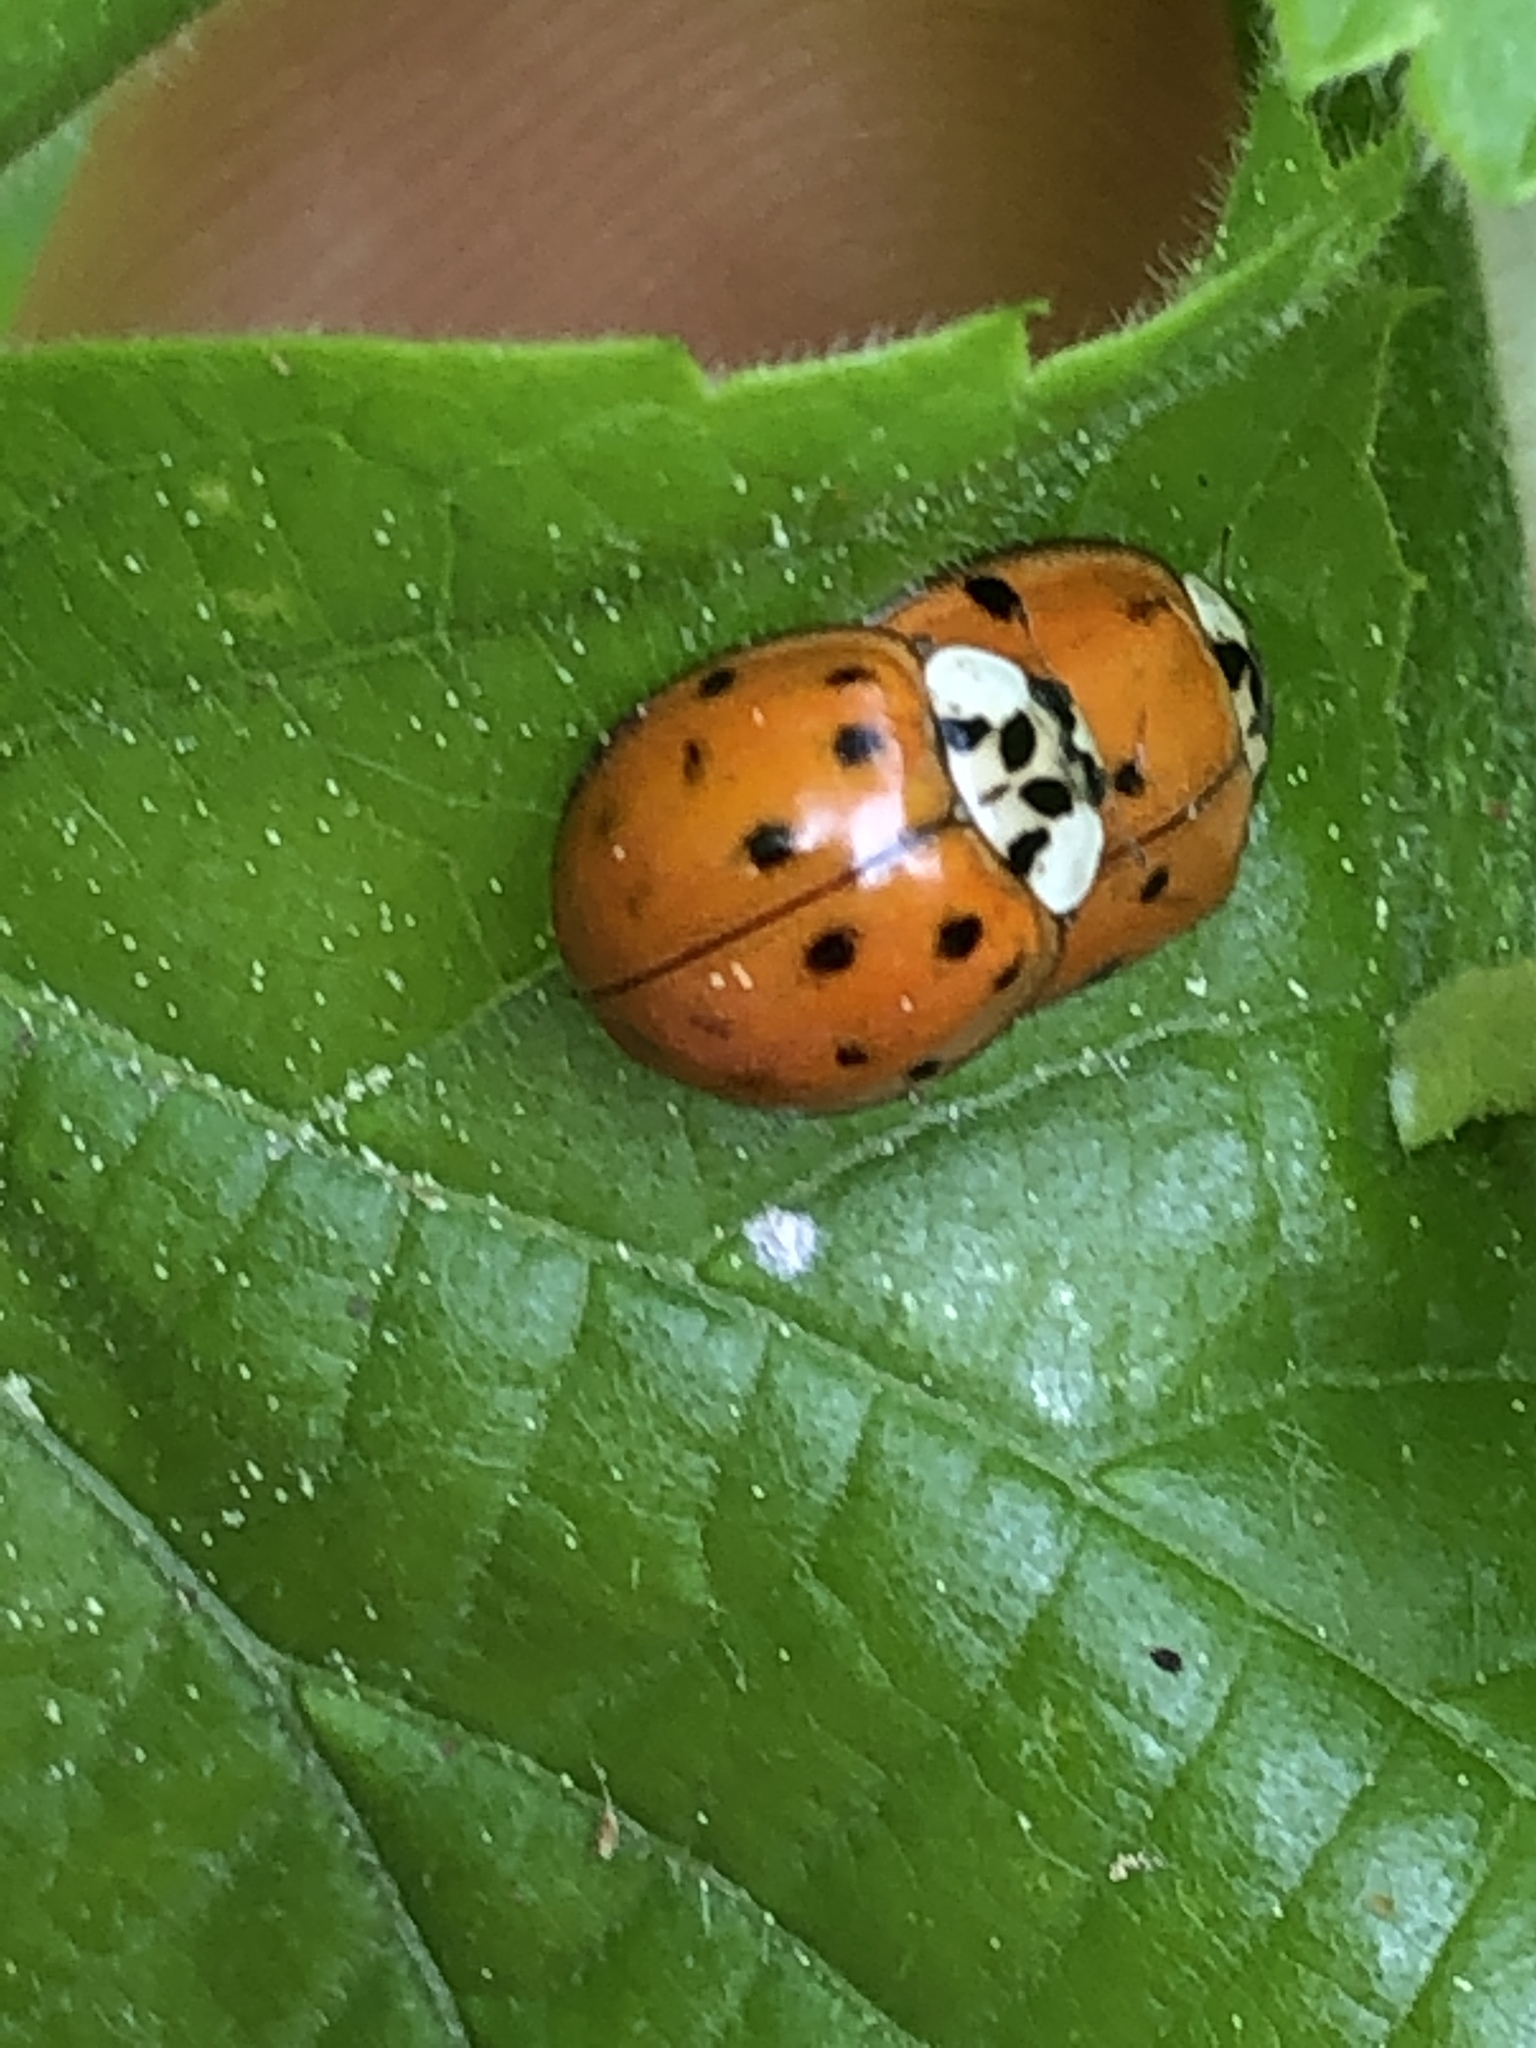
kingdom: Animalia
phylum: Arthropoda
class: Insecta
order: Coleoptera
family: Coccinellidae
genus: Harmonia
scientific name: Harmonia axyridis
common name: Harlequin ladybird
